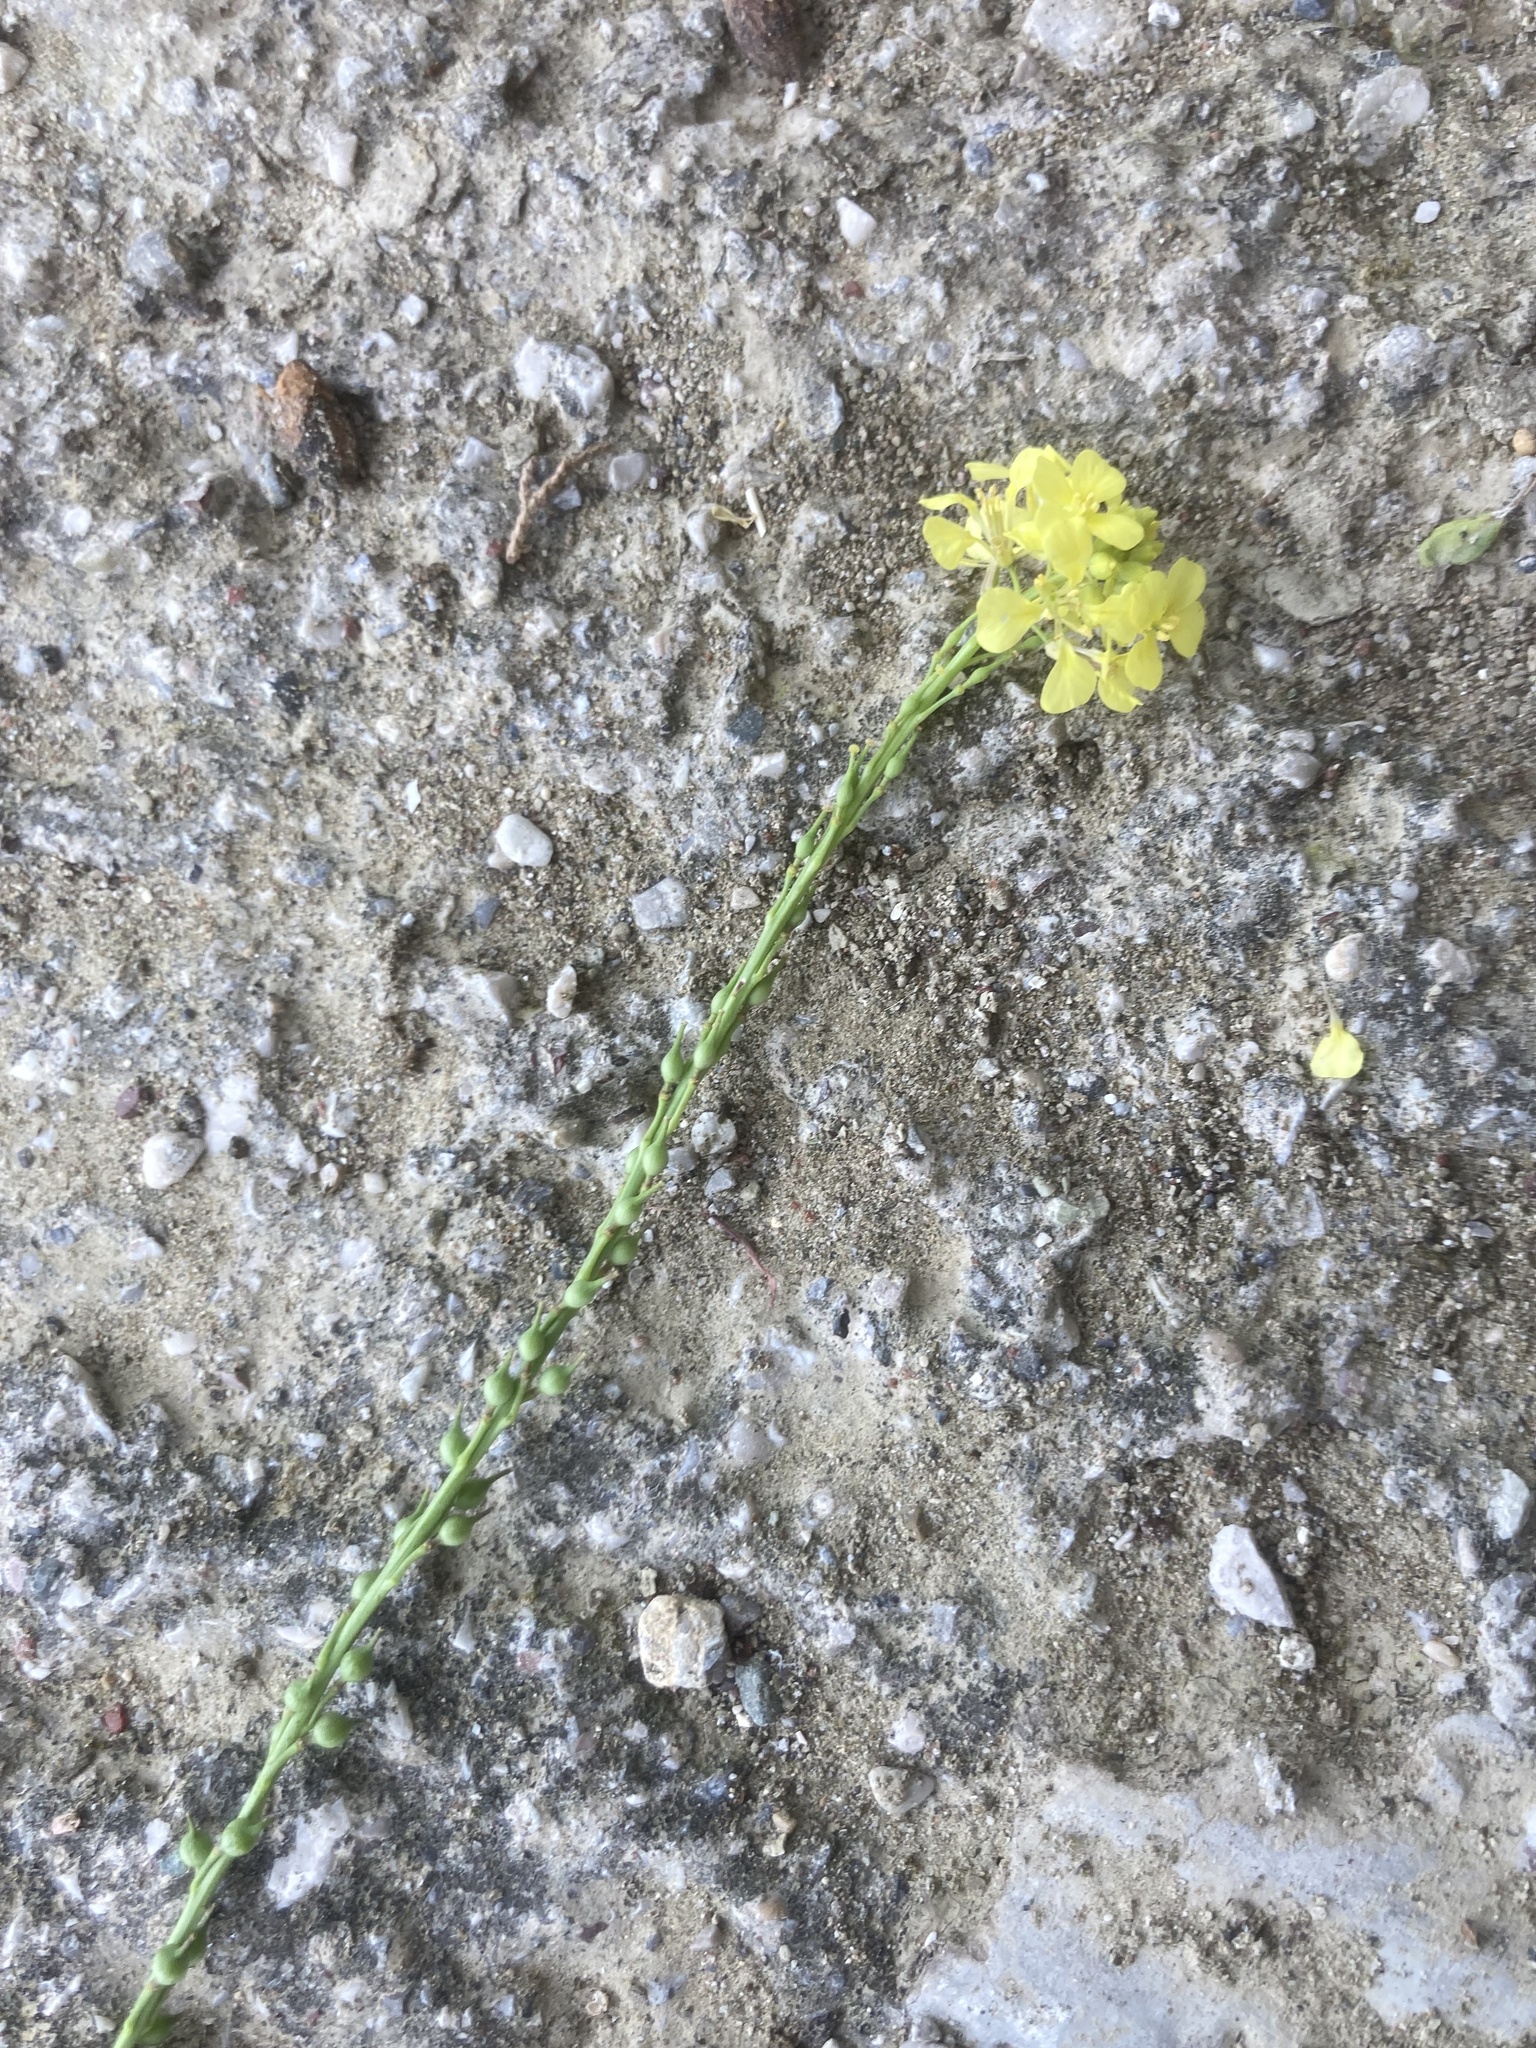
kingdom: Plantae
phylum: Tracheophyta
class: Magnoliopsida
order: Brassicales
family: Brassicaceae
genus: Rapistrum
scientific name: Rapistrum rugosum
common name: Annual bastardcabbage
